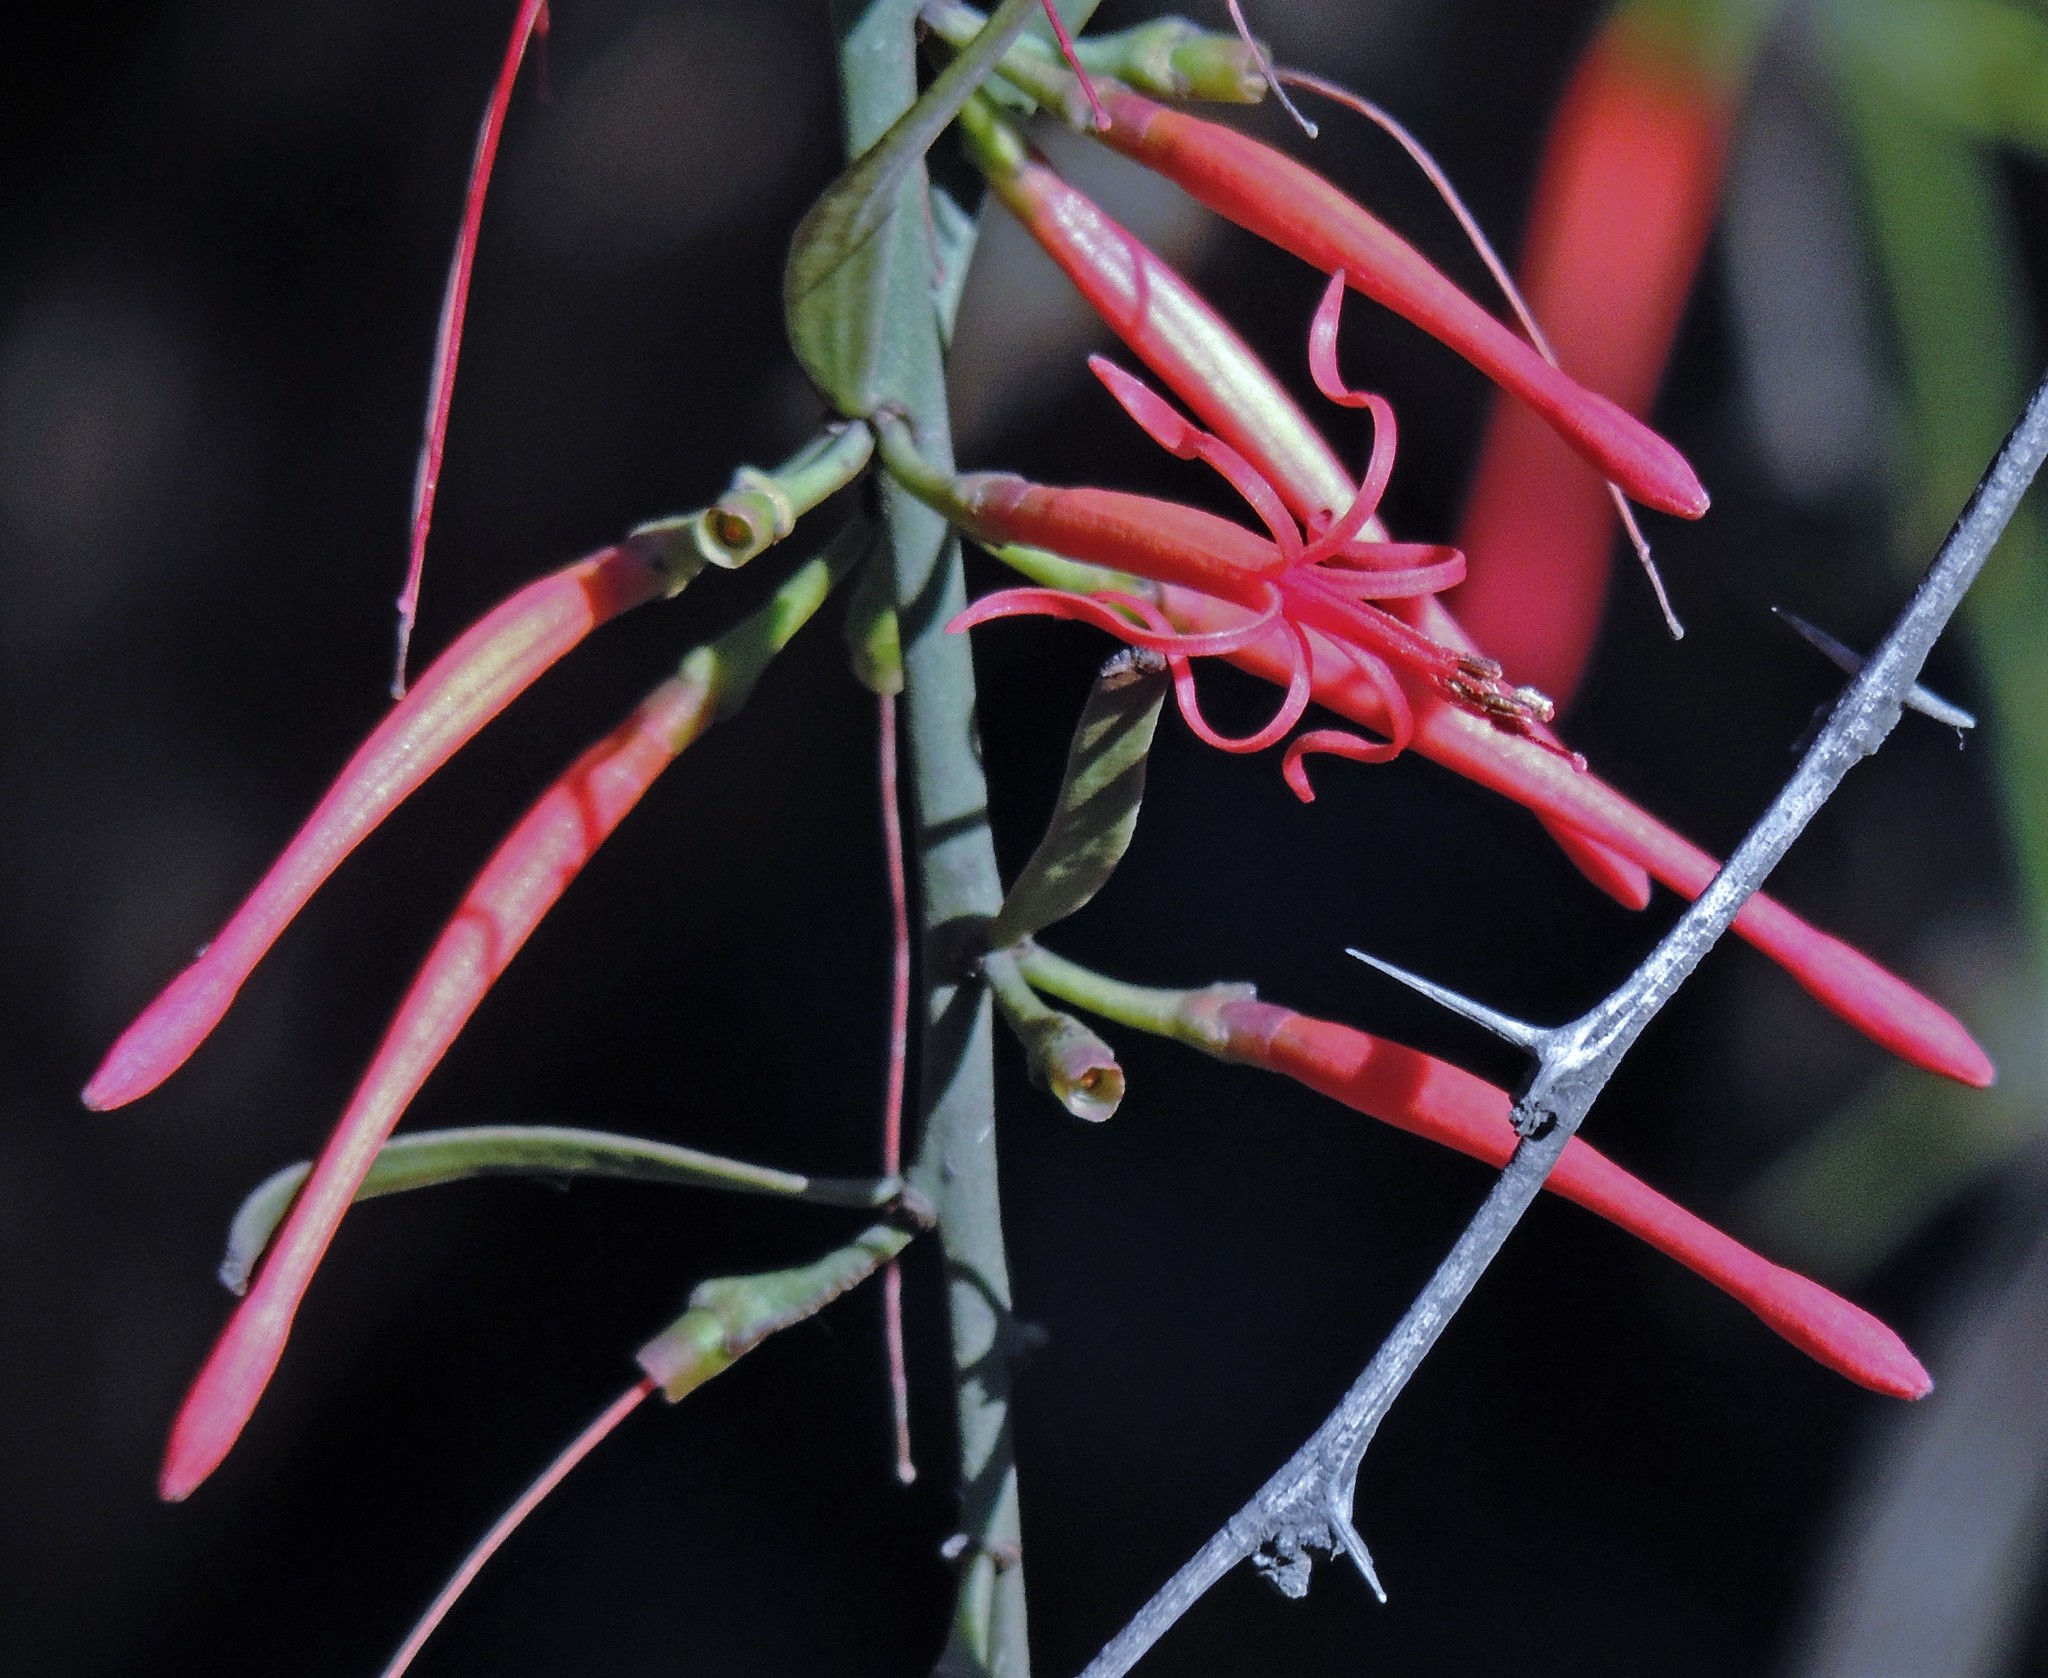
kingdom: Plantae
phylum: Tracheophyta
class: Magnoliopsida
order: Santalales
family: Loranthaceae
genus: Ligaria
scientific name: Ligaria cuneifolia
